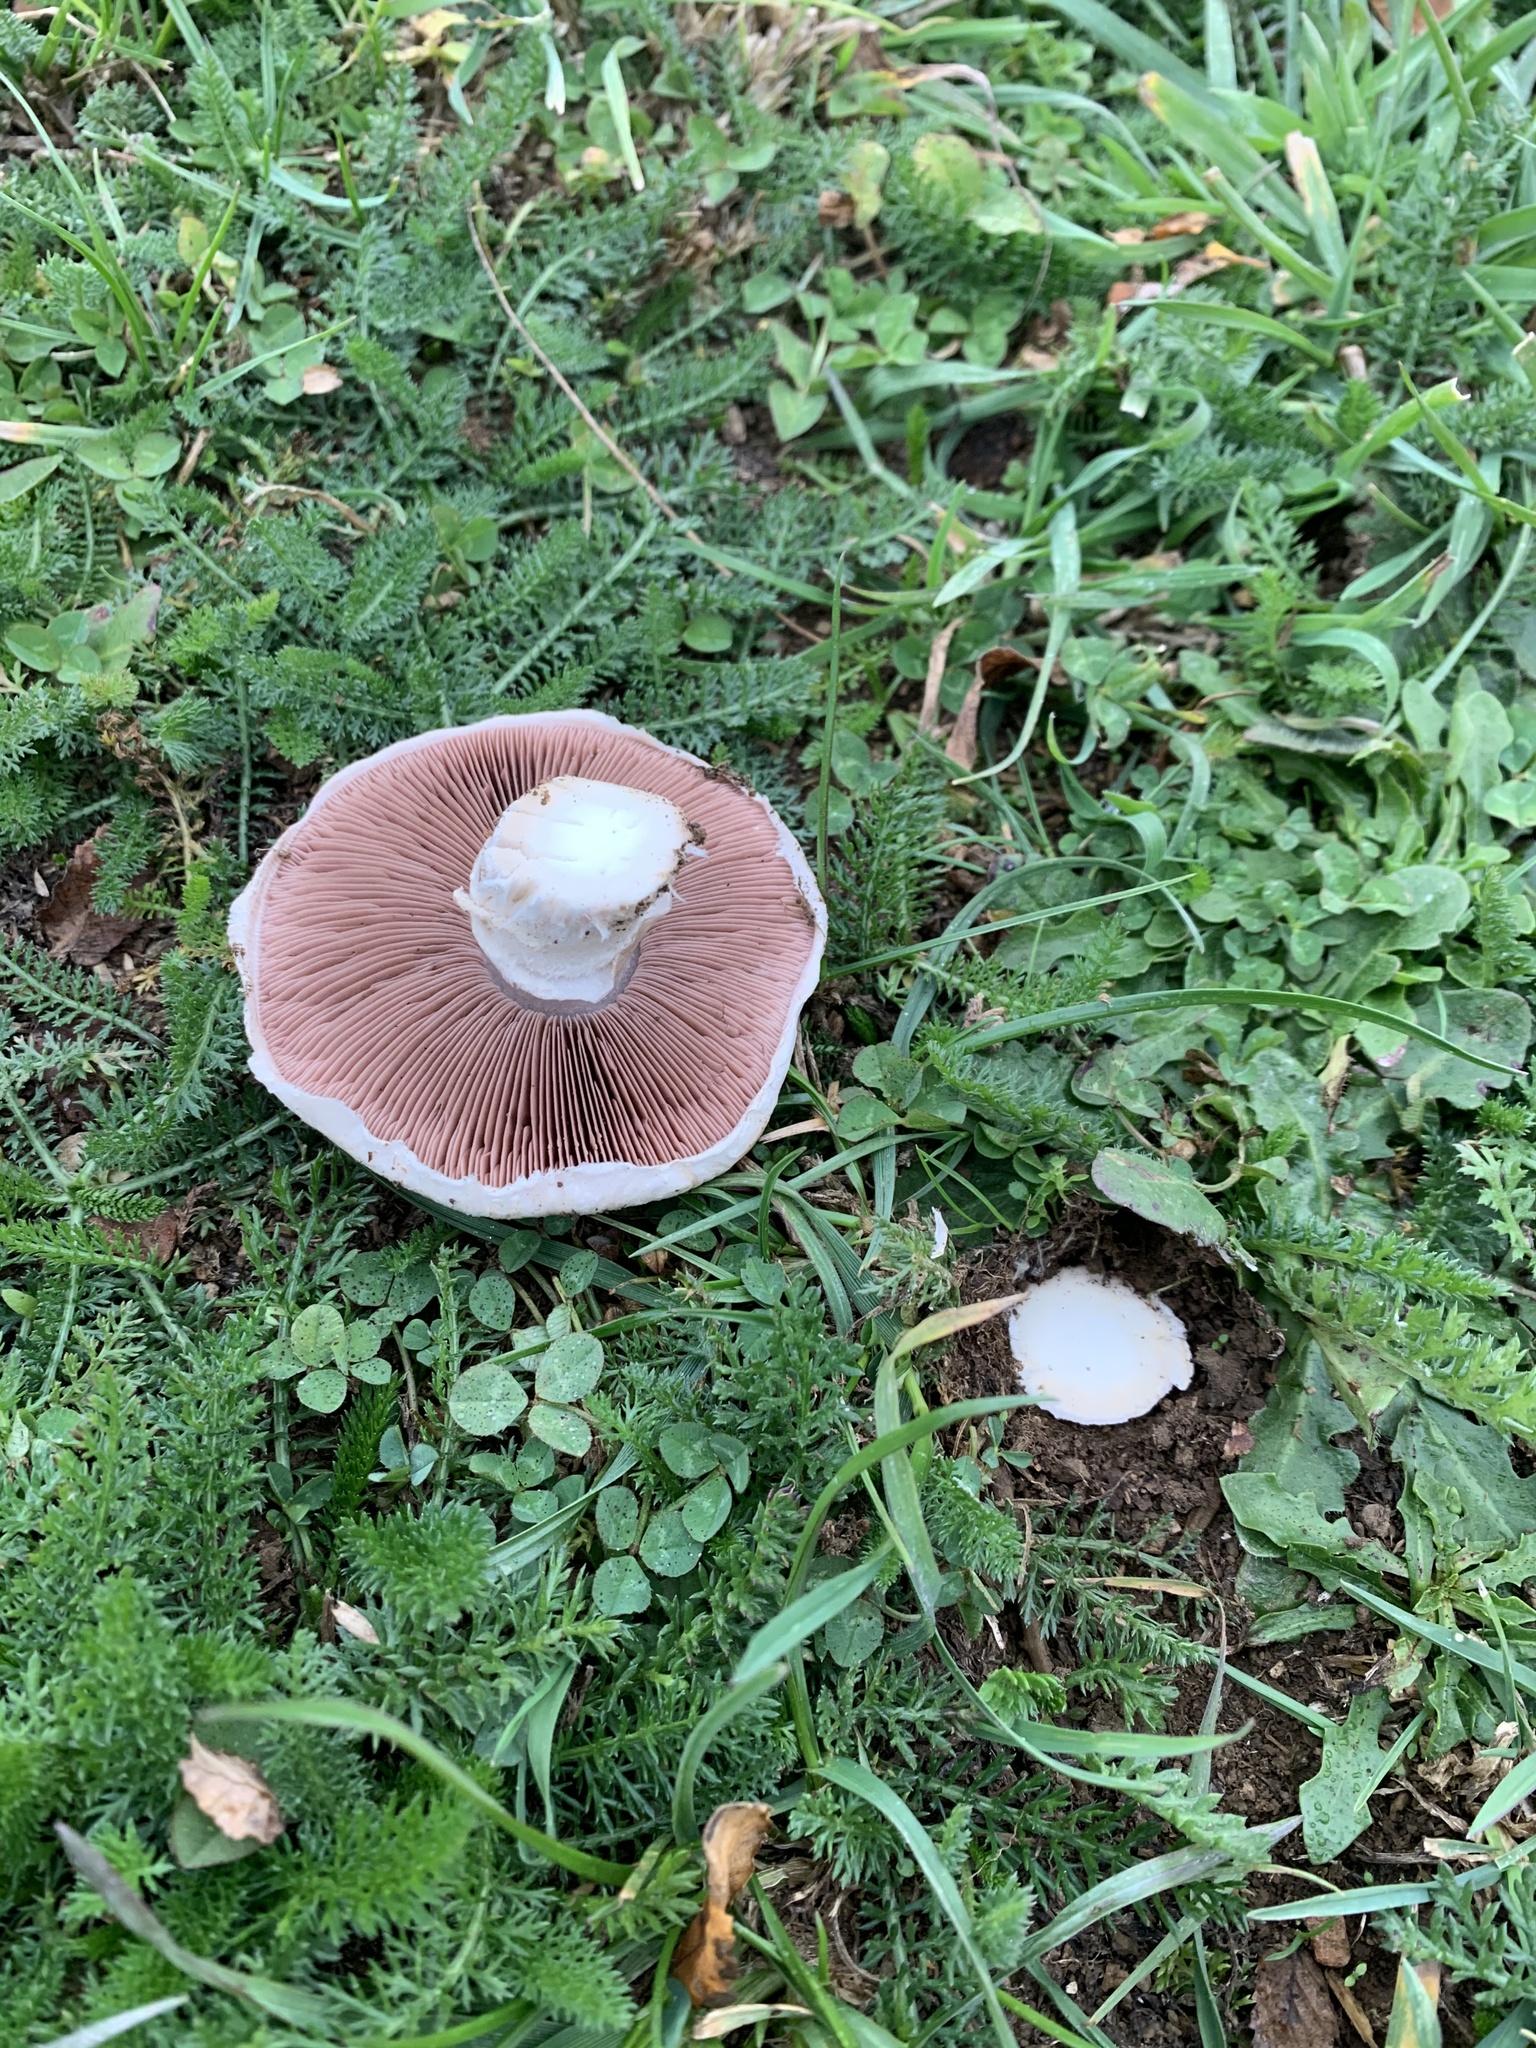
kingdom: Fungi
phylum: Basidiomycota
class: Agaricomycetes
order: Agaricales
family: Agaricaceae
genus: Agaricus
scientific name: Agaricus campestris
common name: Field mushroom
